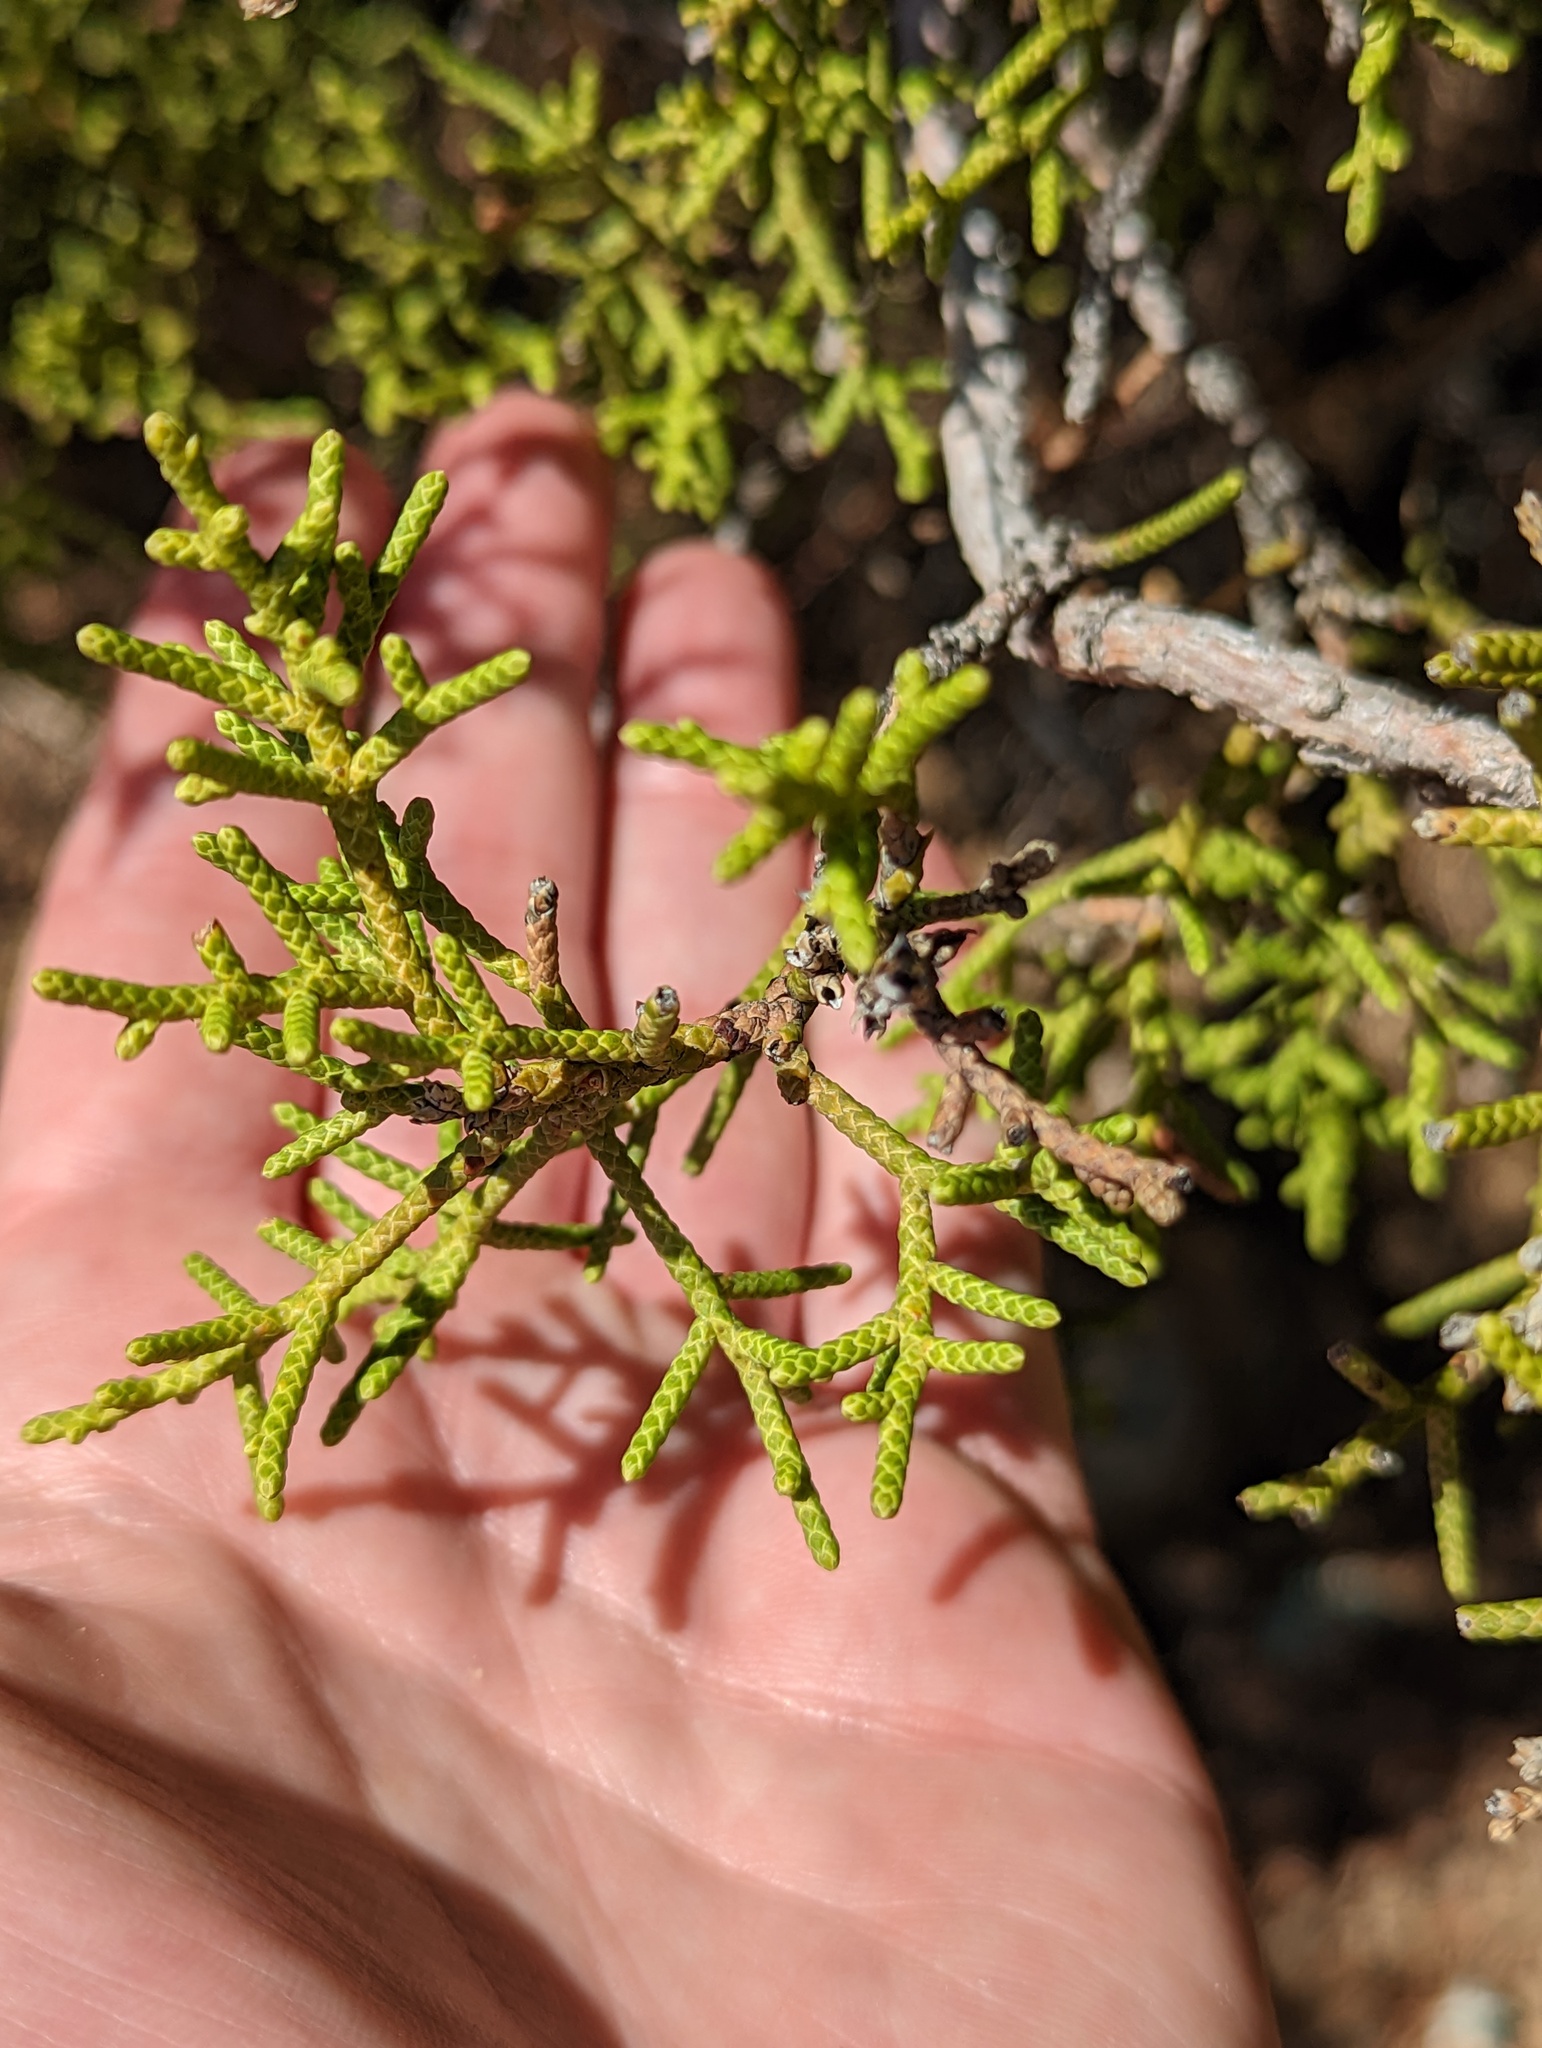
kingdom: Plantae
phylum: Tracheophyta
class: Pinopsida
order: Pinales
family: Cupressaceae
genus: Juniperus
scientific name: Juniperus californica
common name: California juniper
